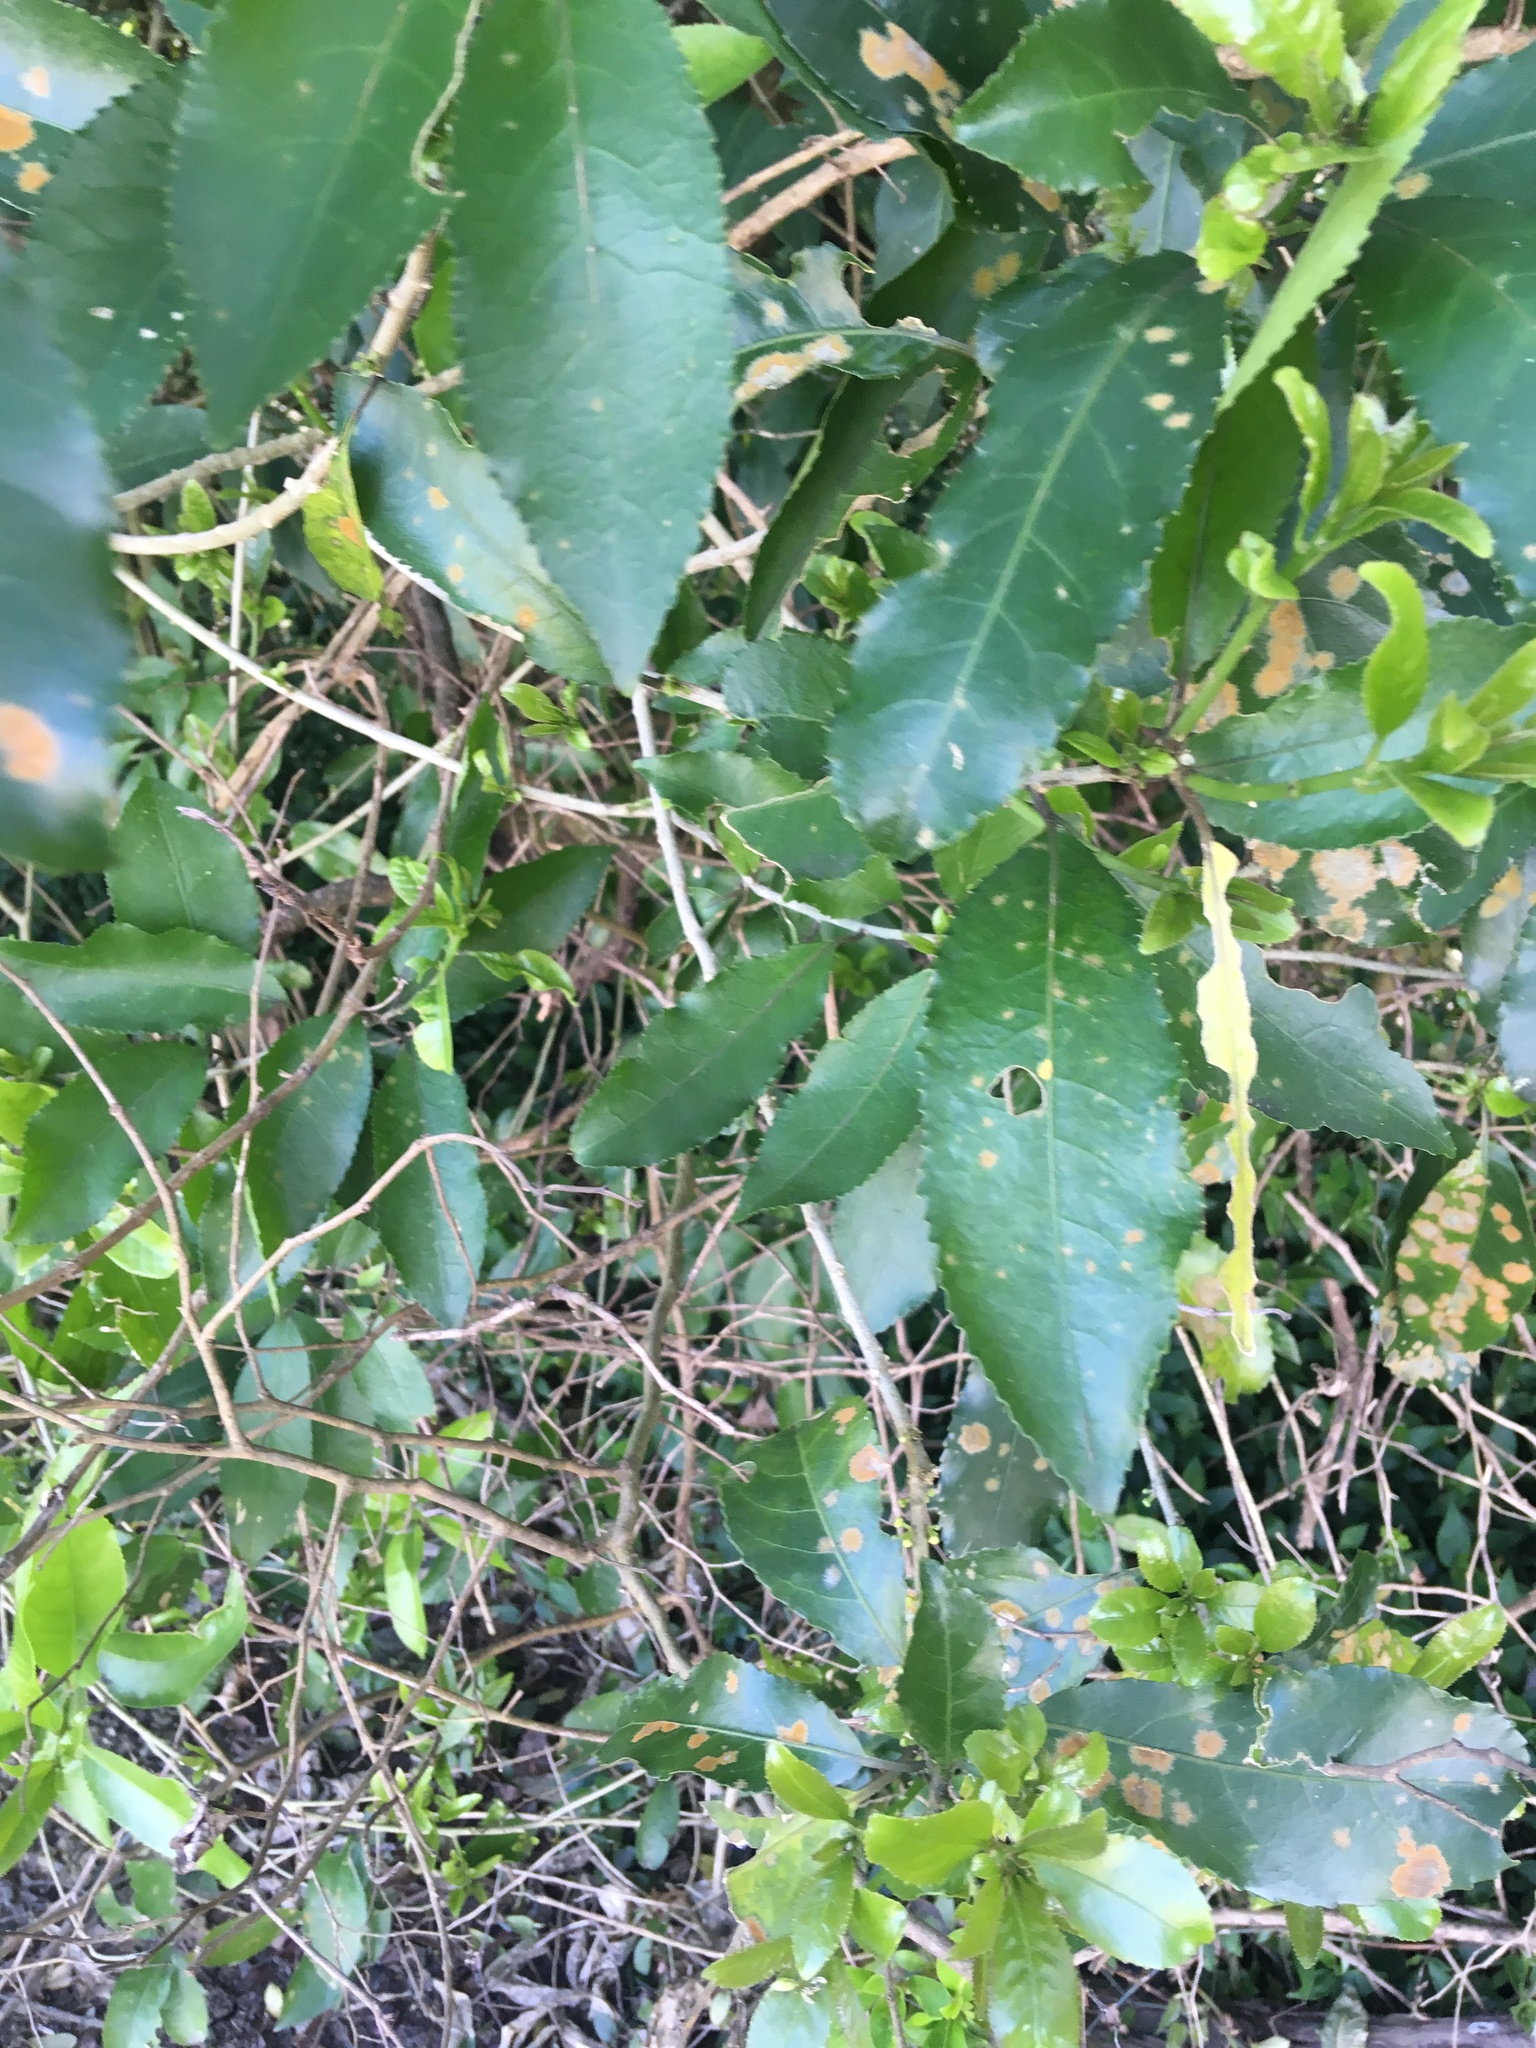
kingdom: Plantae
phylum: Tracheophyta
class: Magnoliopsida
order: Malpighiales
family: Violaceae
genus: Melicytus
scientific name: Melicytus ramiflorus
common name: Mahoe
